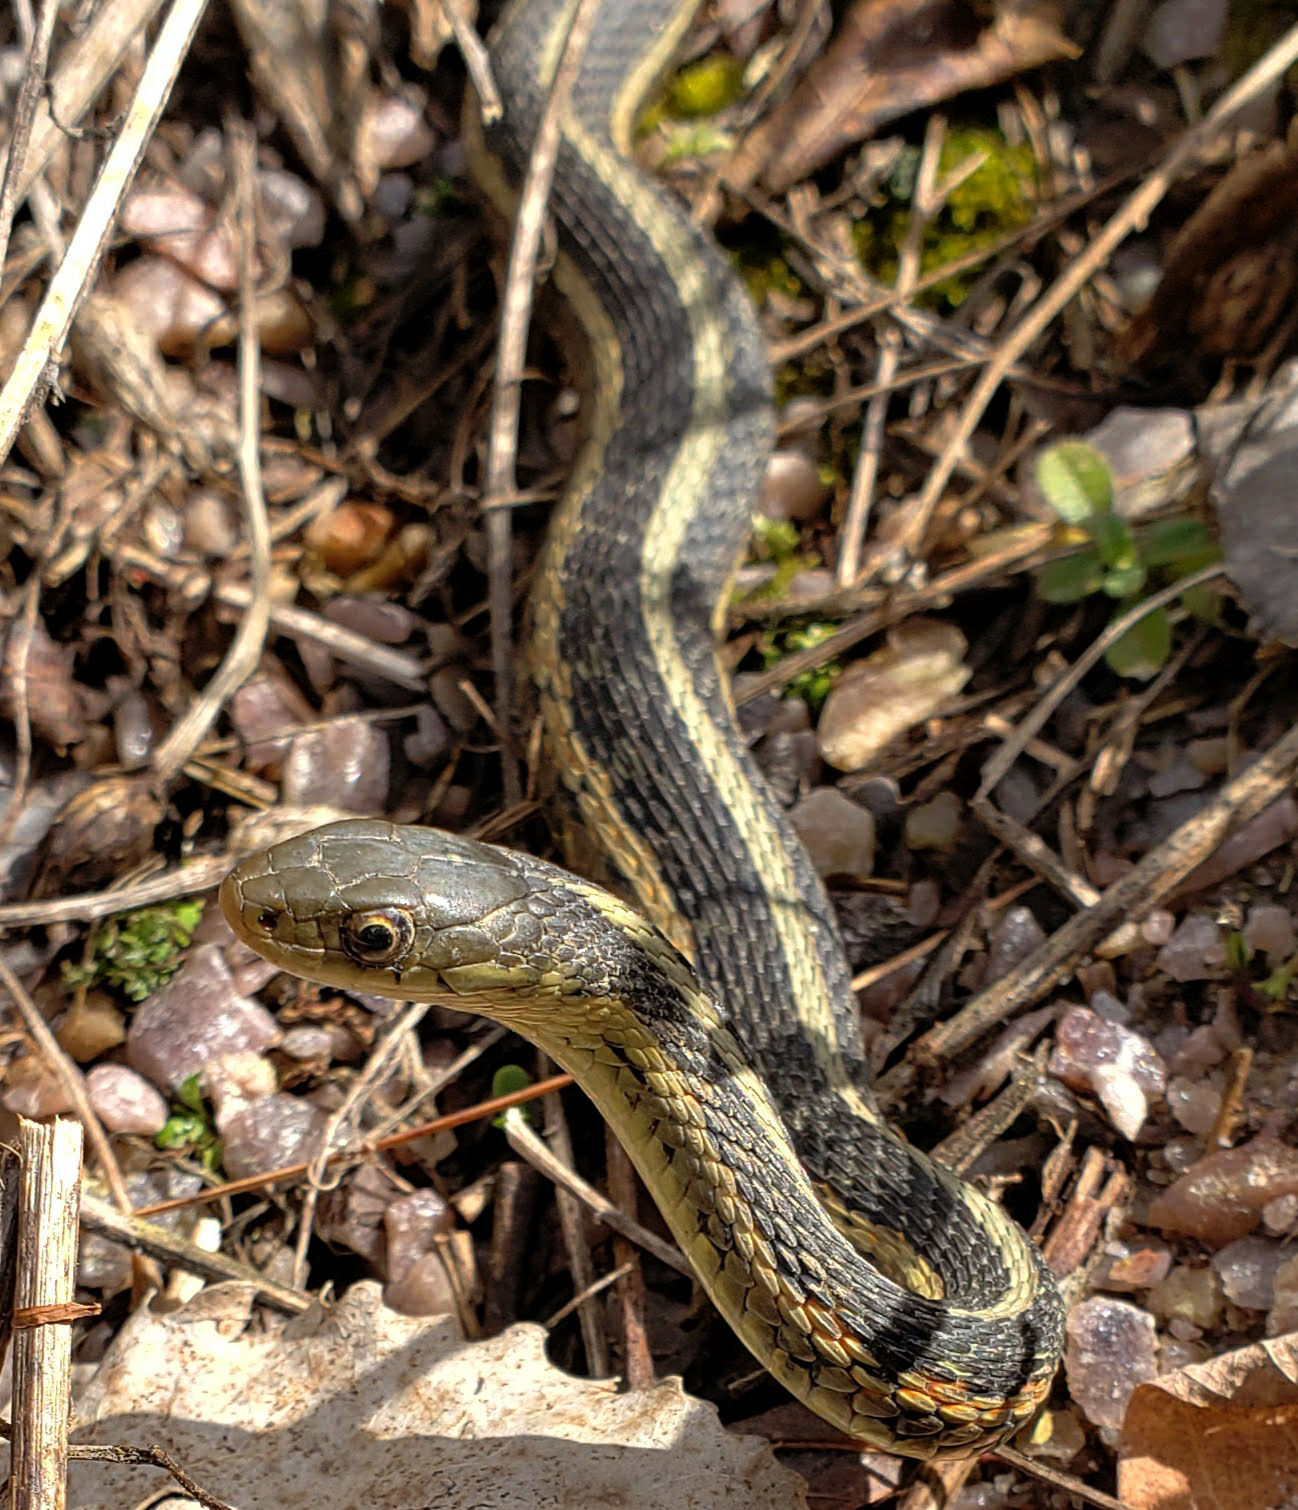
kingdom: Animalia
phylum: Chordata
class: Squamata
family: Colubridae
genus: Thamnophis
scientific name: Thamnophis sirtalis
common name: Common garter snake
